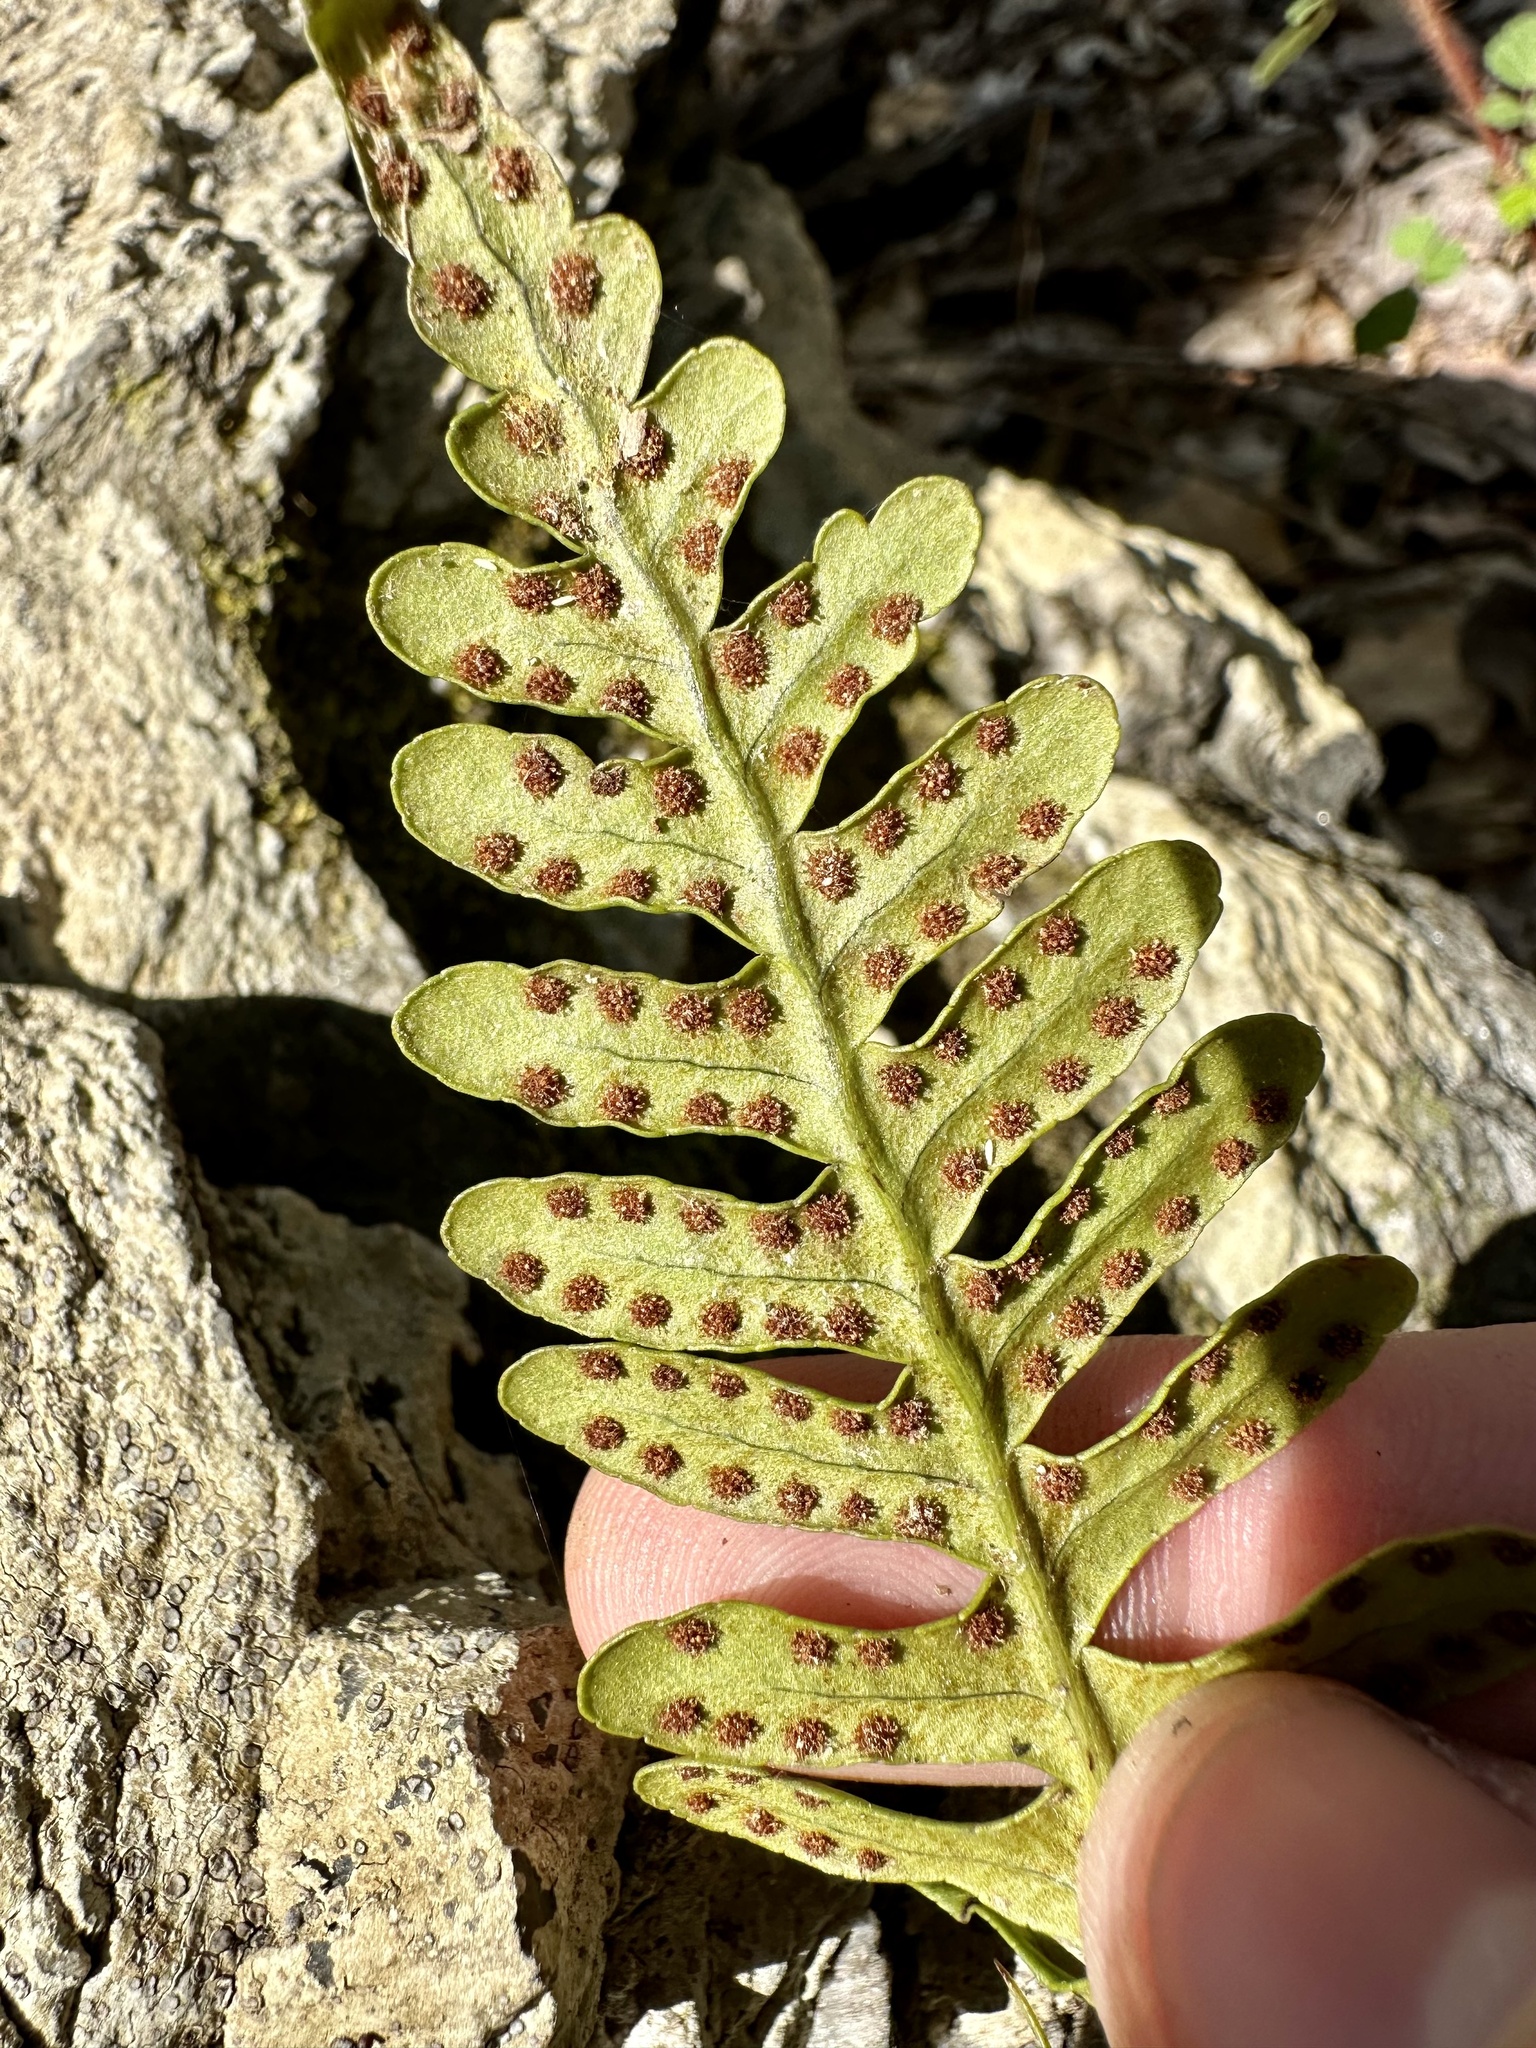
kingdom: Plantae
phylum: Tracheophyta
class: Polypodiopsida
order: Polypodiales
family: Polypodiaceae
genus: Polypodium
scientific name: Polypodium virginianum
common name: American wall fern
